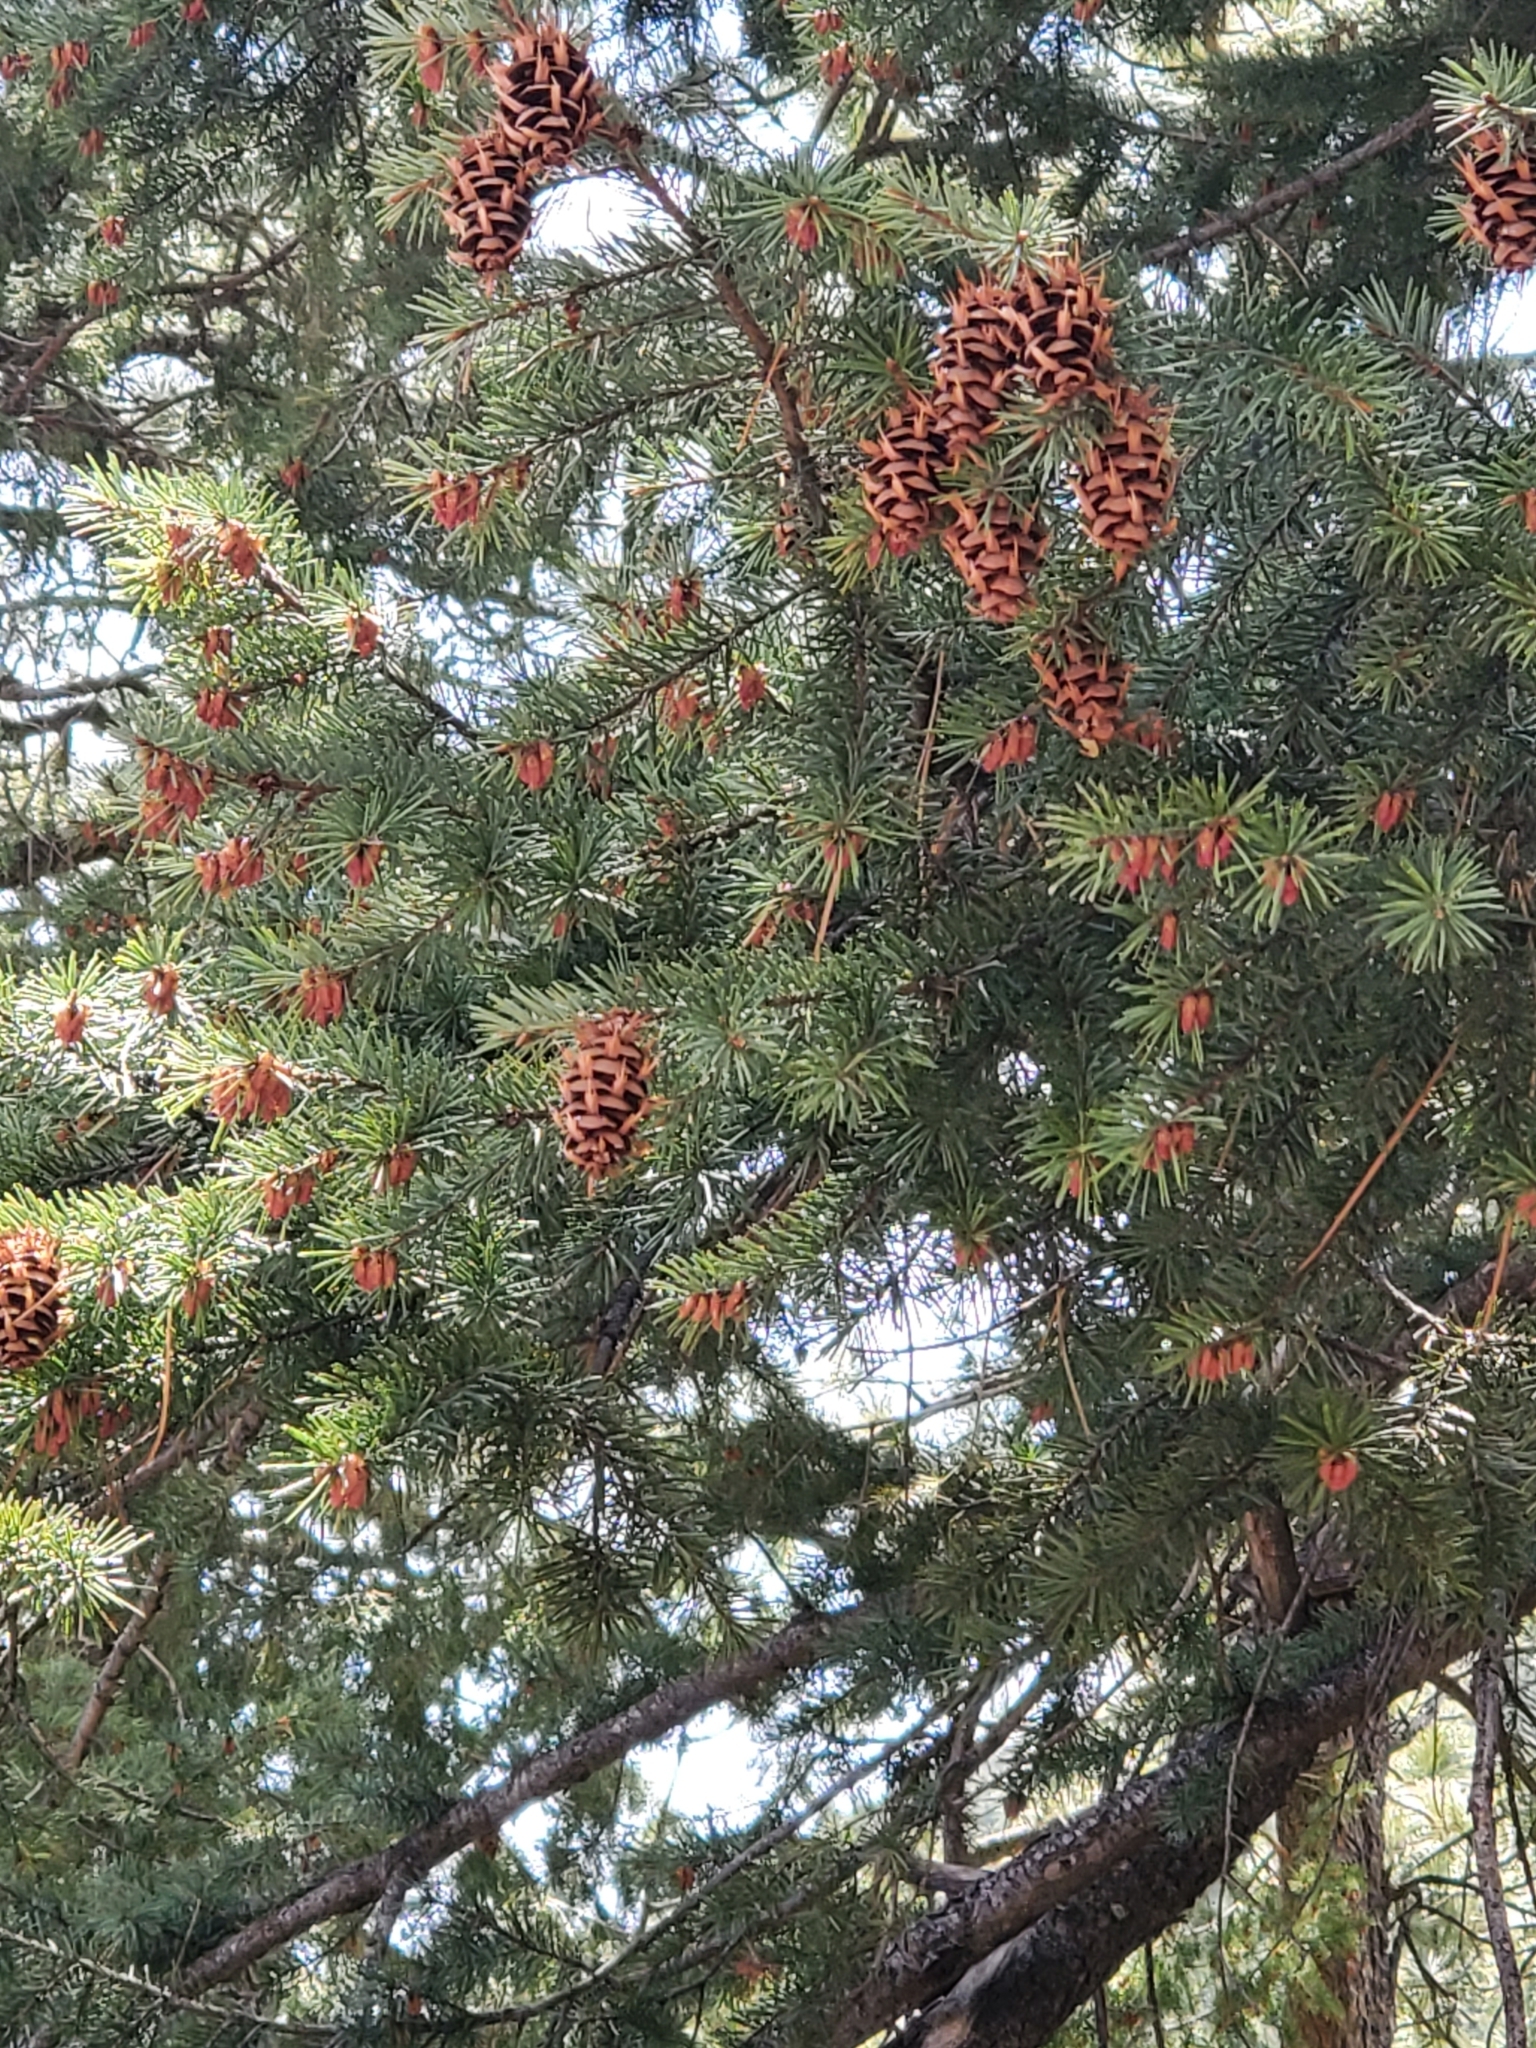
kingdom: Plantae
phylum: Tracheophyta
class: Pinopsida
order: Pinales
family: Pinaceae
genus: Pseudotsuga
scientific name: Pseudotsuga menziesii
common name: Douglas fir
